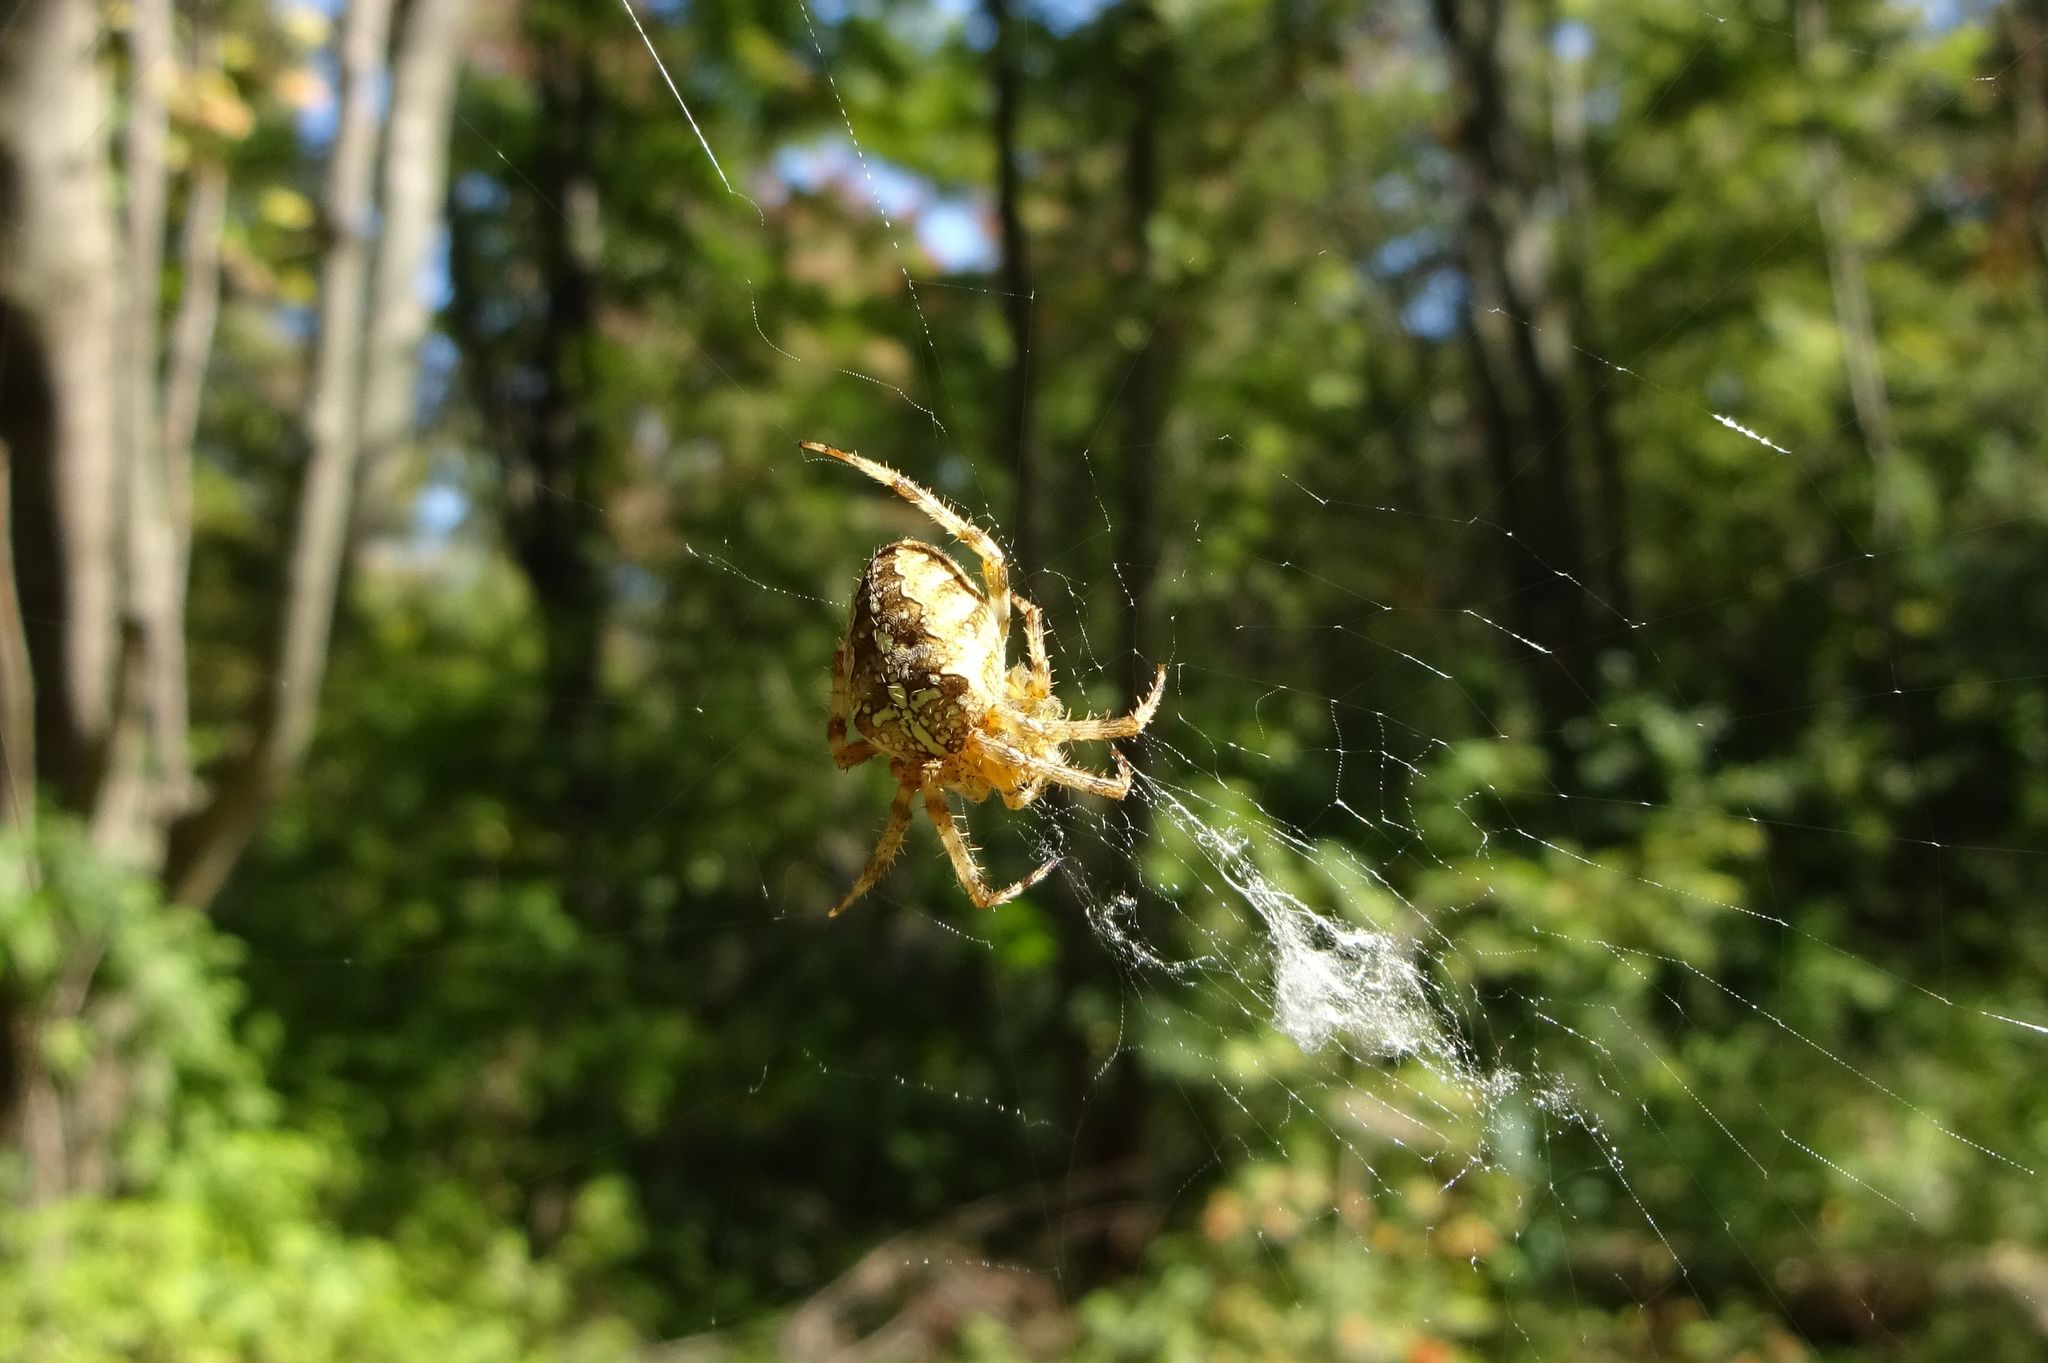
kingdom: Animalia
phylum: Arthropoda
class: Arachnida
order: Araneae
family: Araneidae
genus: Araneus
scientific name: Araneus diadematus
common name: Cross orbweaver
